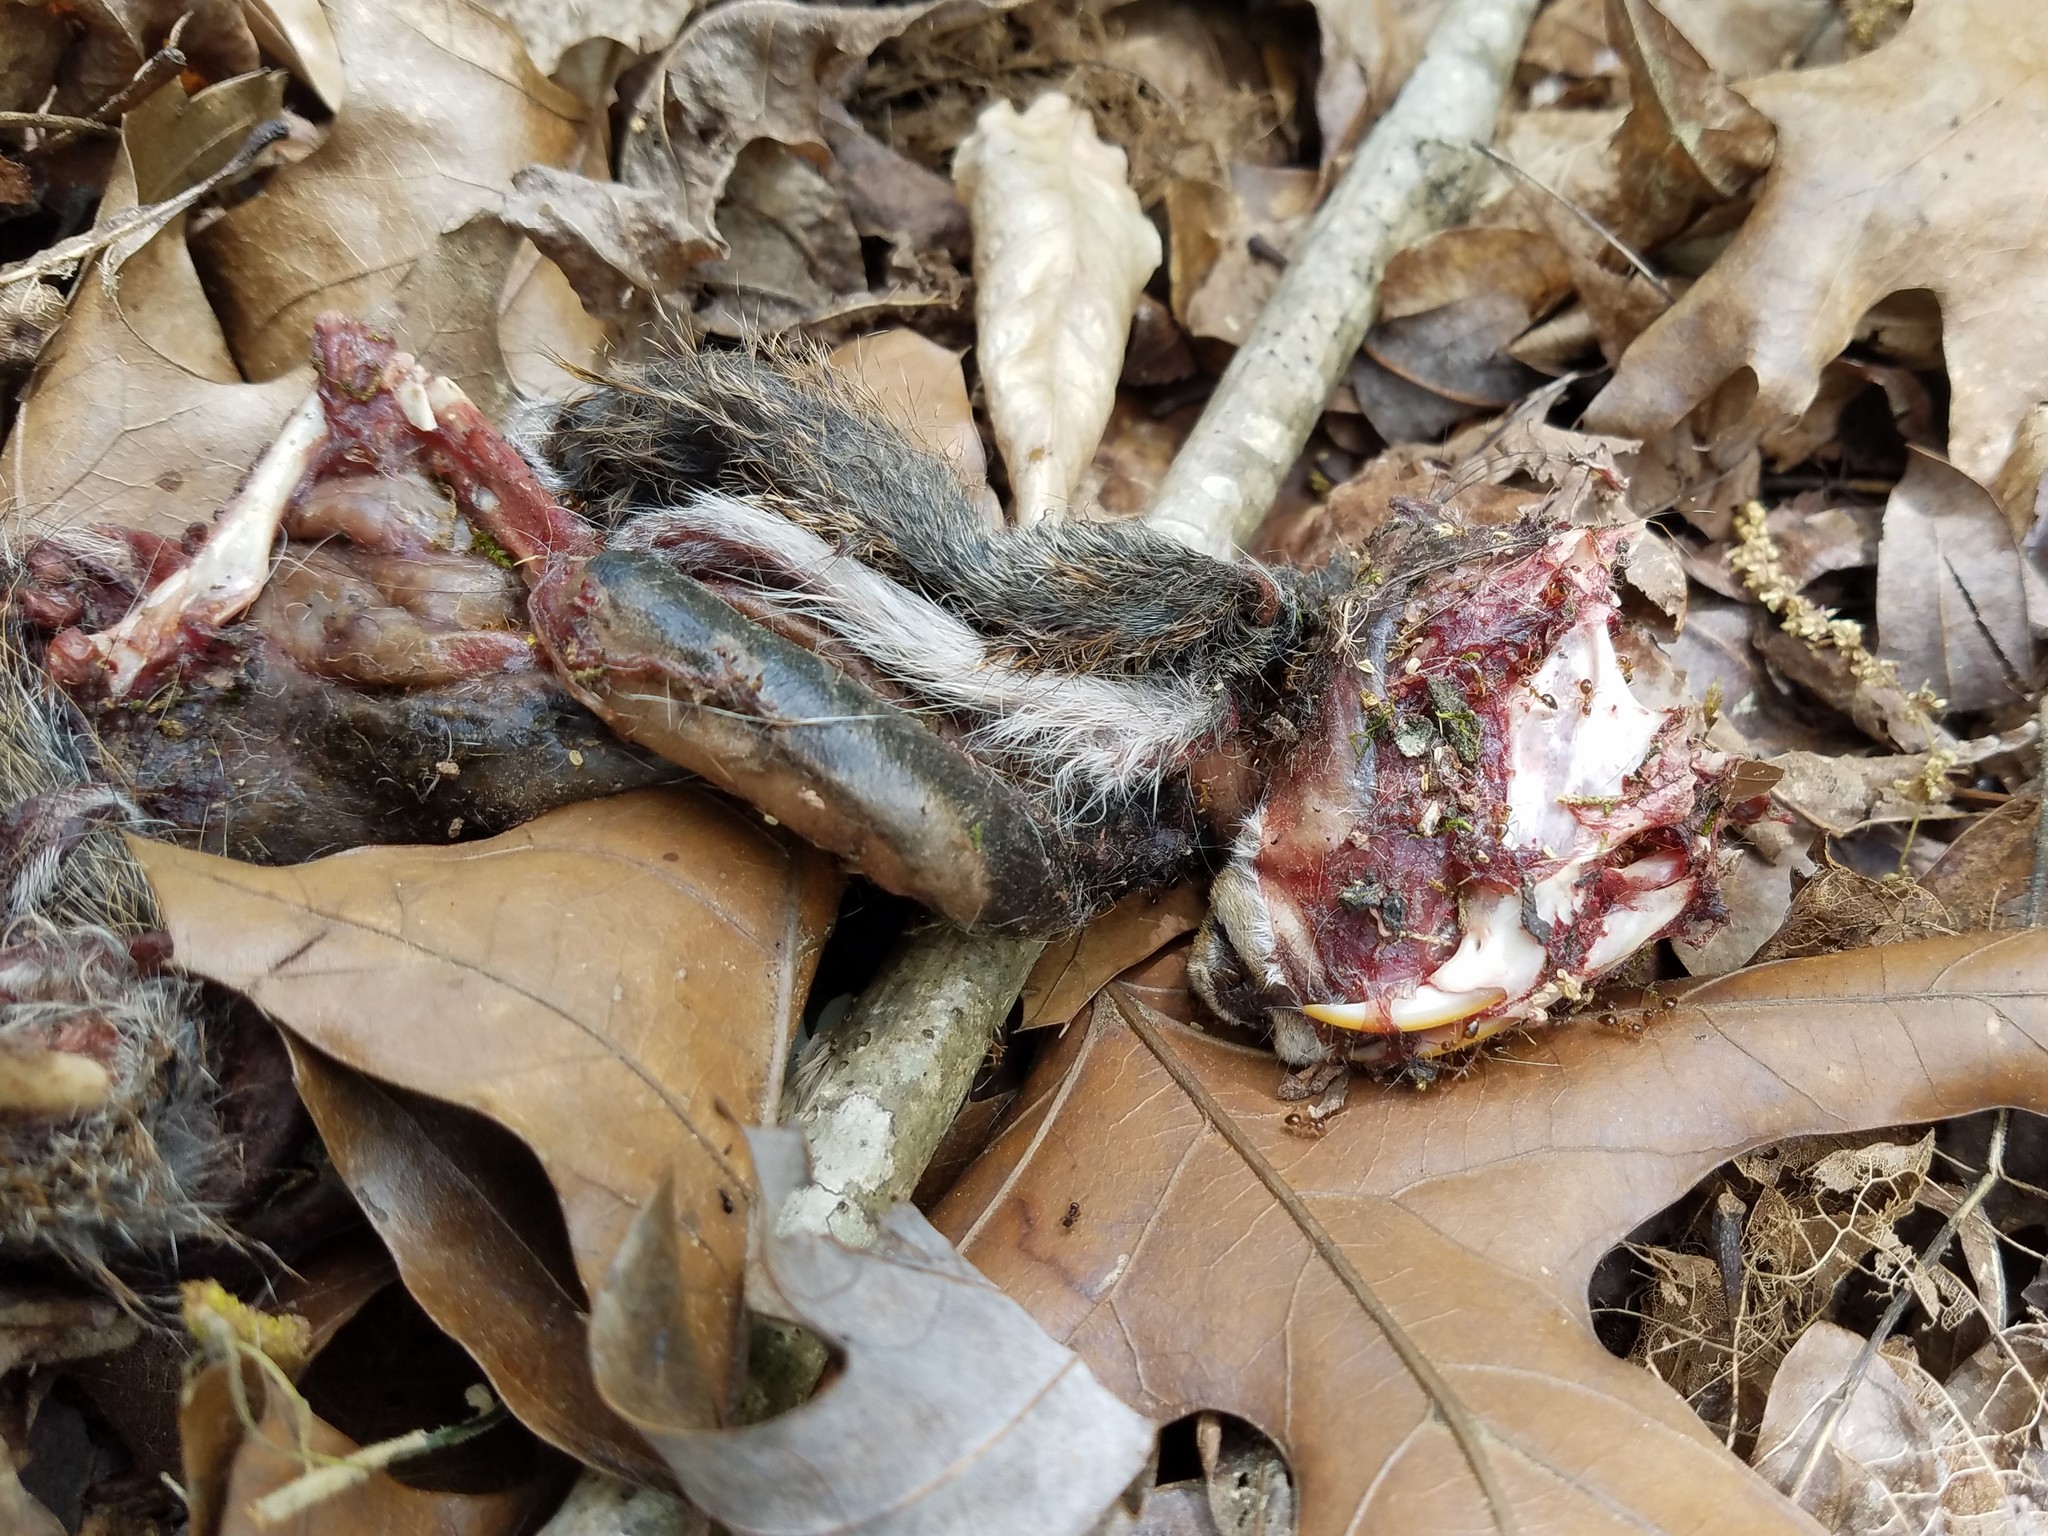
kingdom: Animalia
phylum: Chordata
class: Mammalia
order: Rodentia
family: Sciuridae
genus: Sciurus
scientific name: Sciurus carolinensis
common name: Eastern gray squirrel
